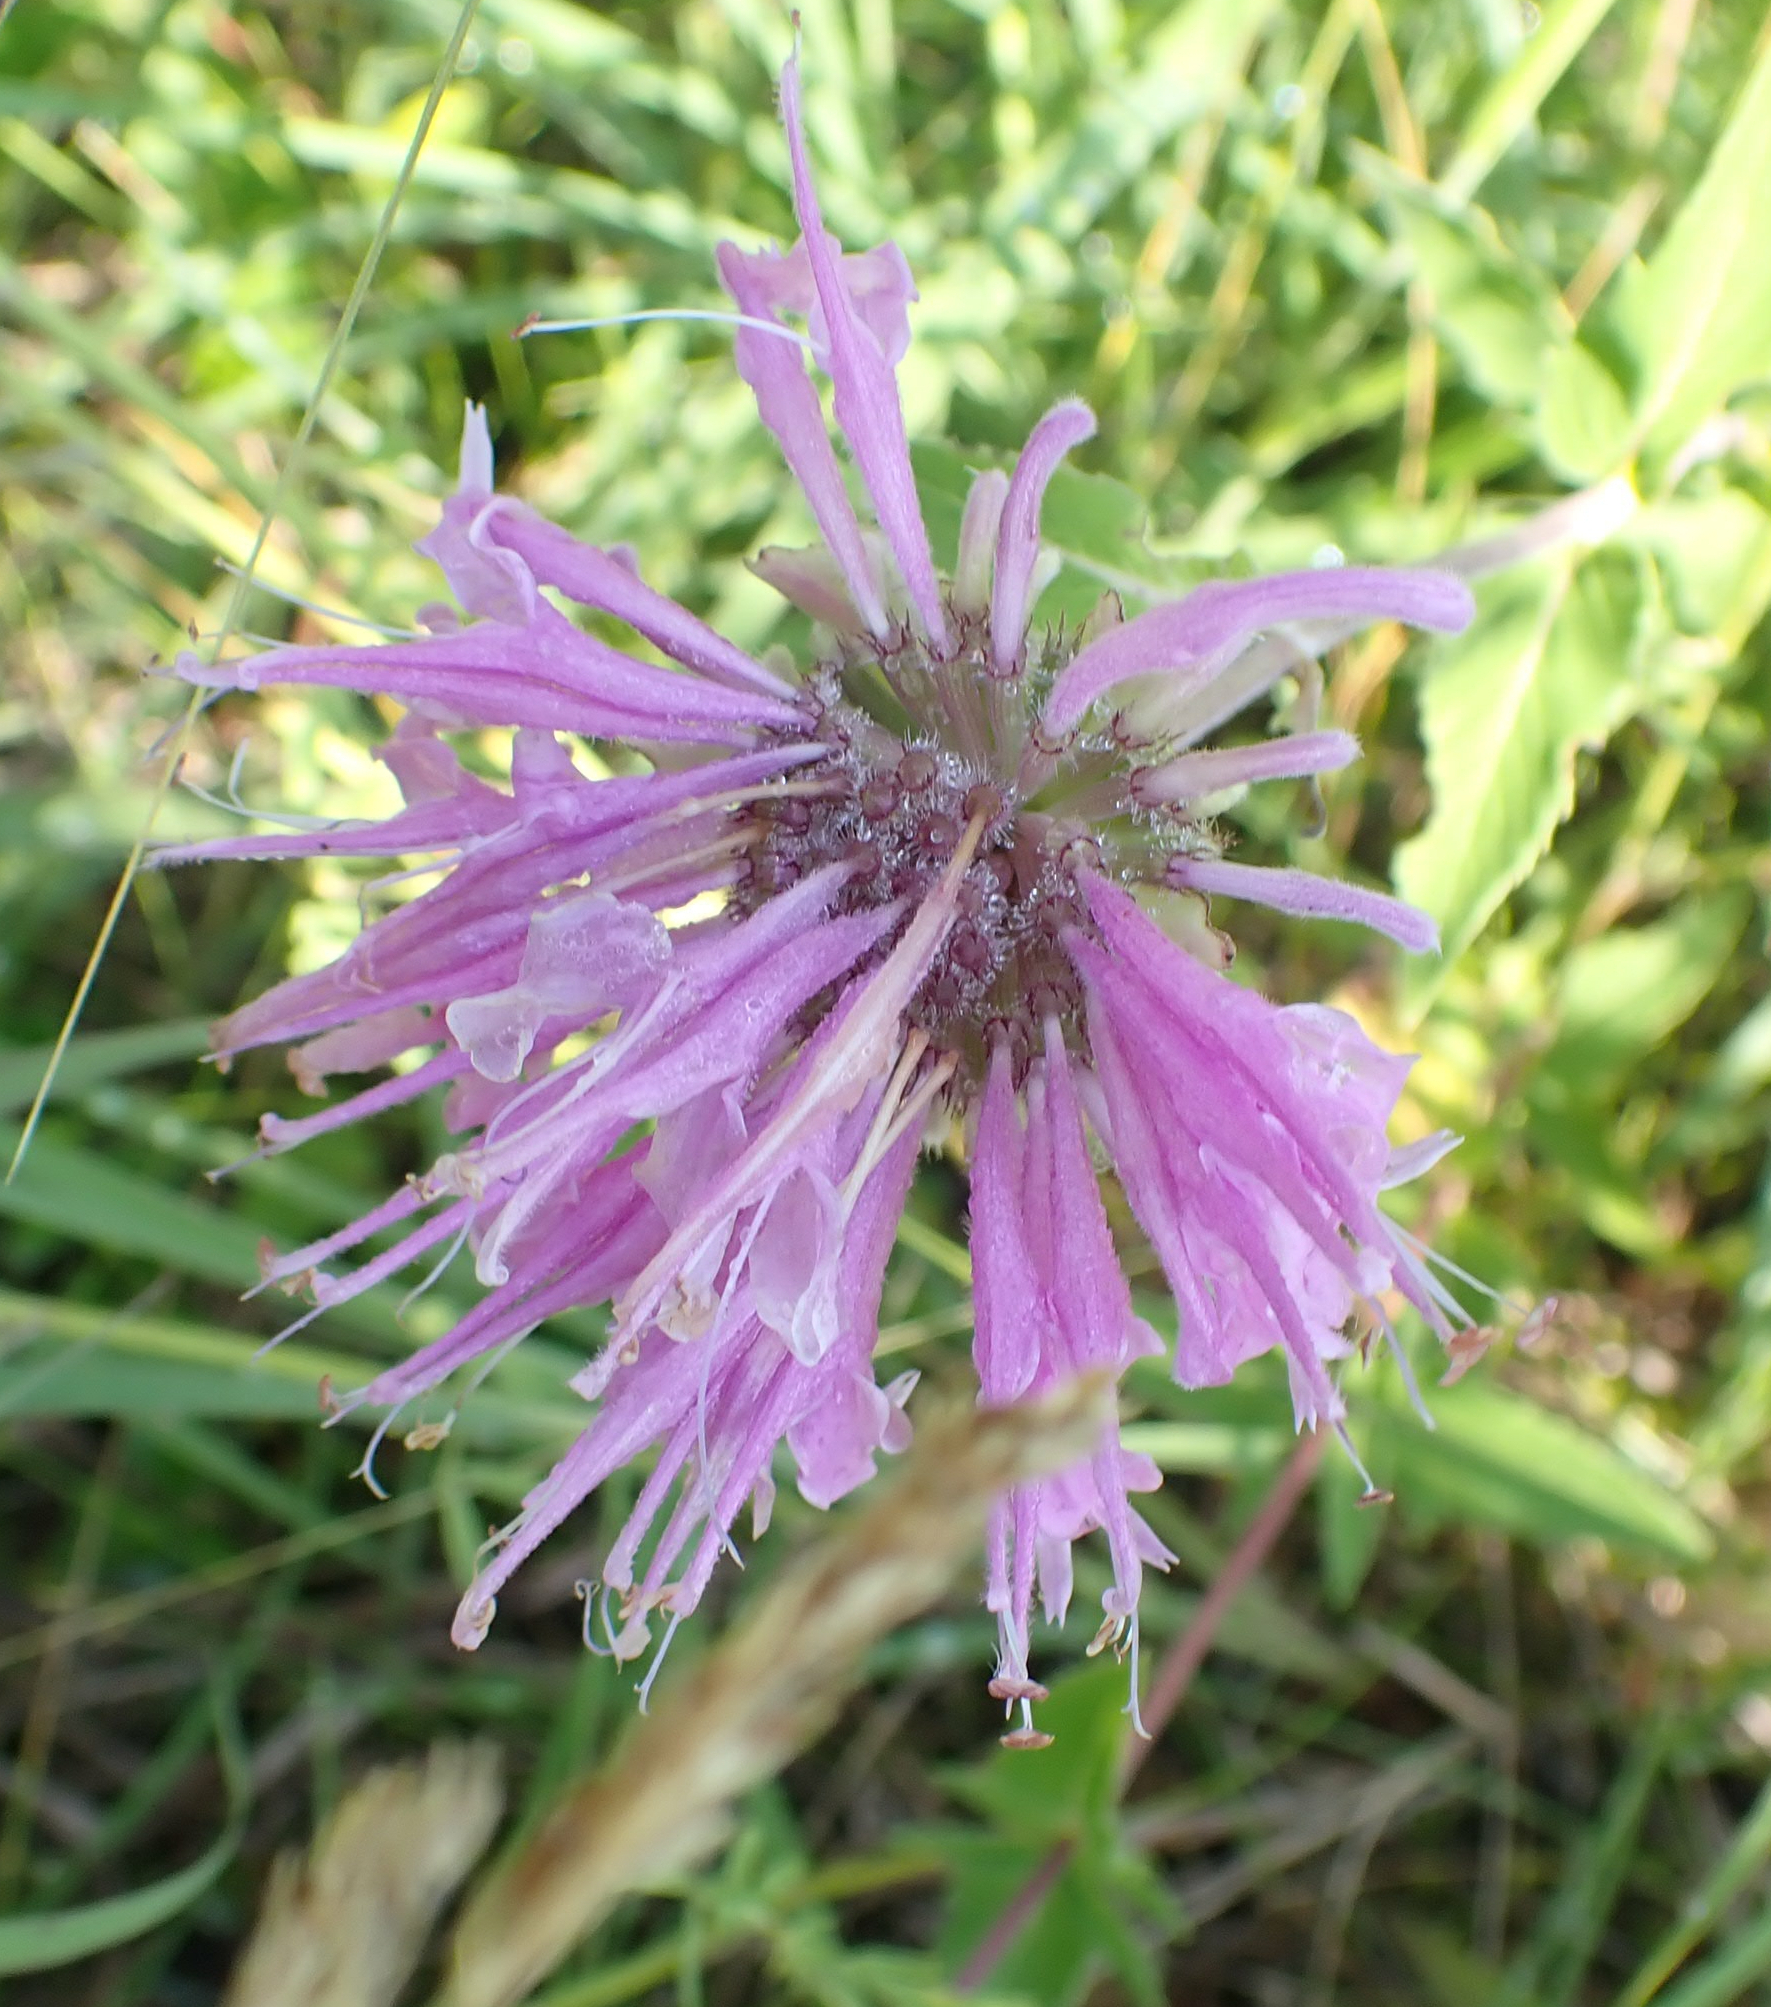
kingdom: Plantae
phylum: Tracheophyta
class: Magnoliopsida
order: Lamiales
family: Lamiaceae
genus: Monarda
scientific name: Monarda fistulosa
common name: Purple beebalm
